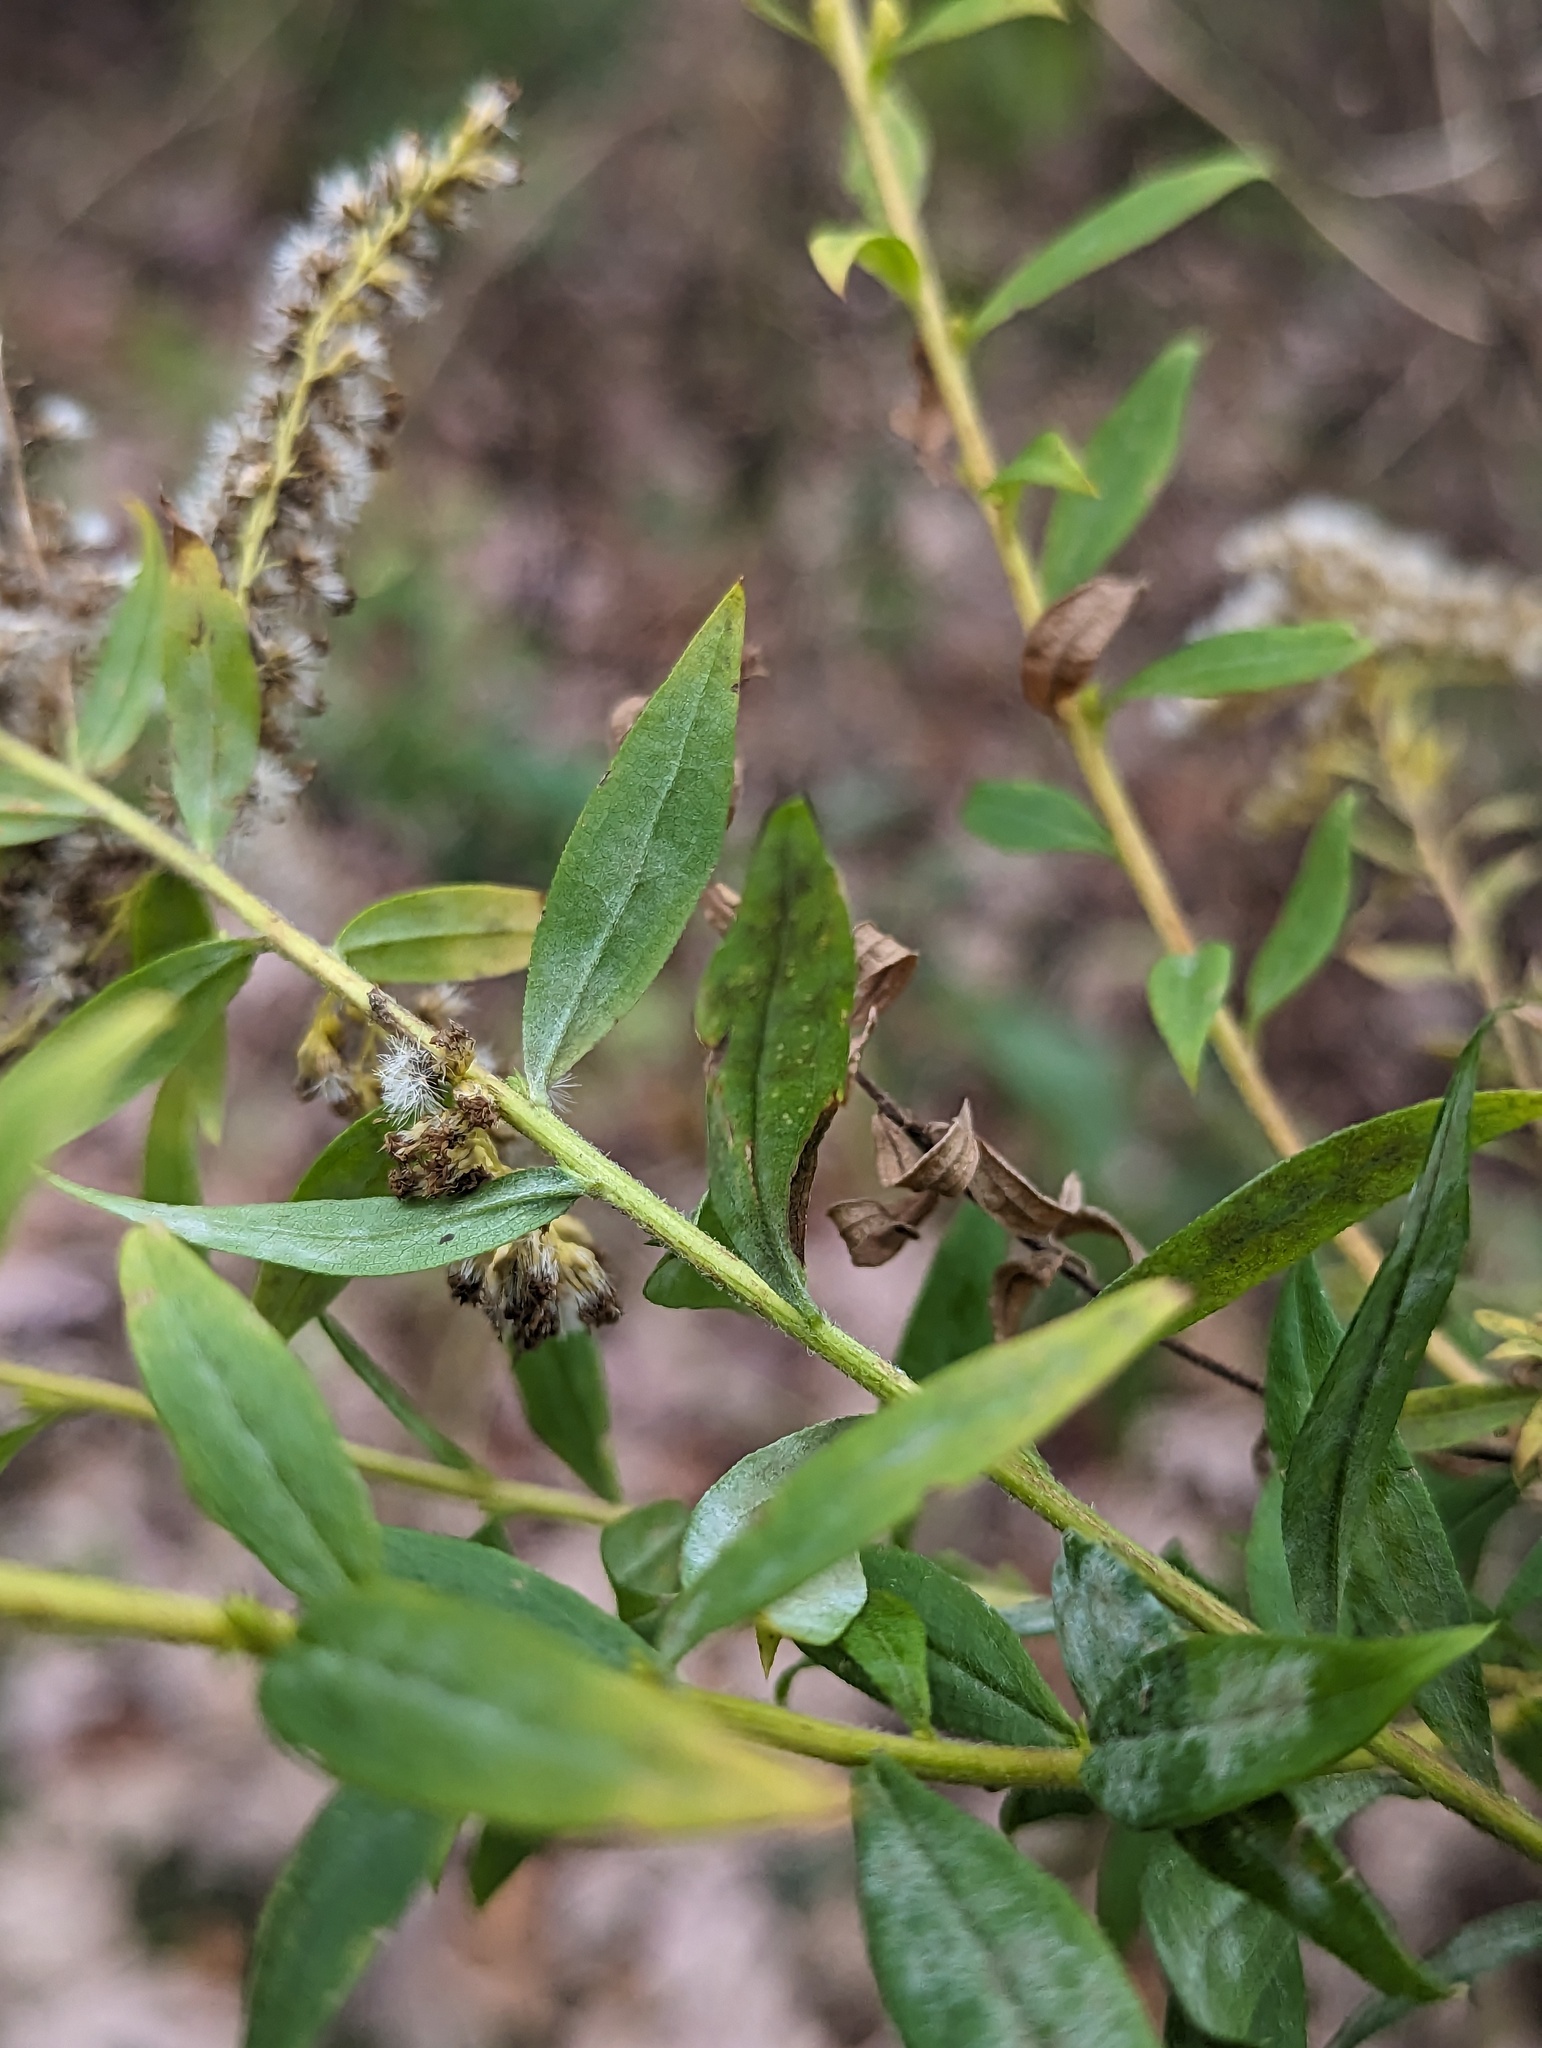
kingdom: Fungi
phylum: Ascomycota
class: Leotiomycetes
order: Helotiales
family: Erysiphaceae
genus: Golovinomyces
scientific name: Golovinomyces asterum
